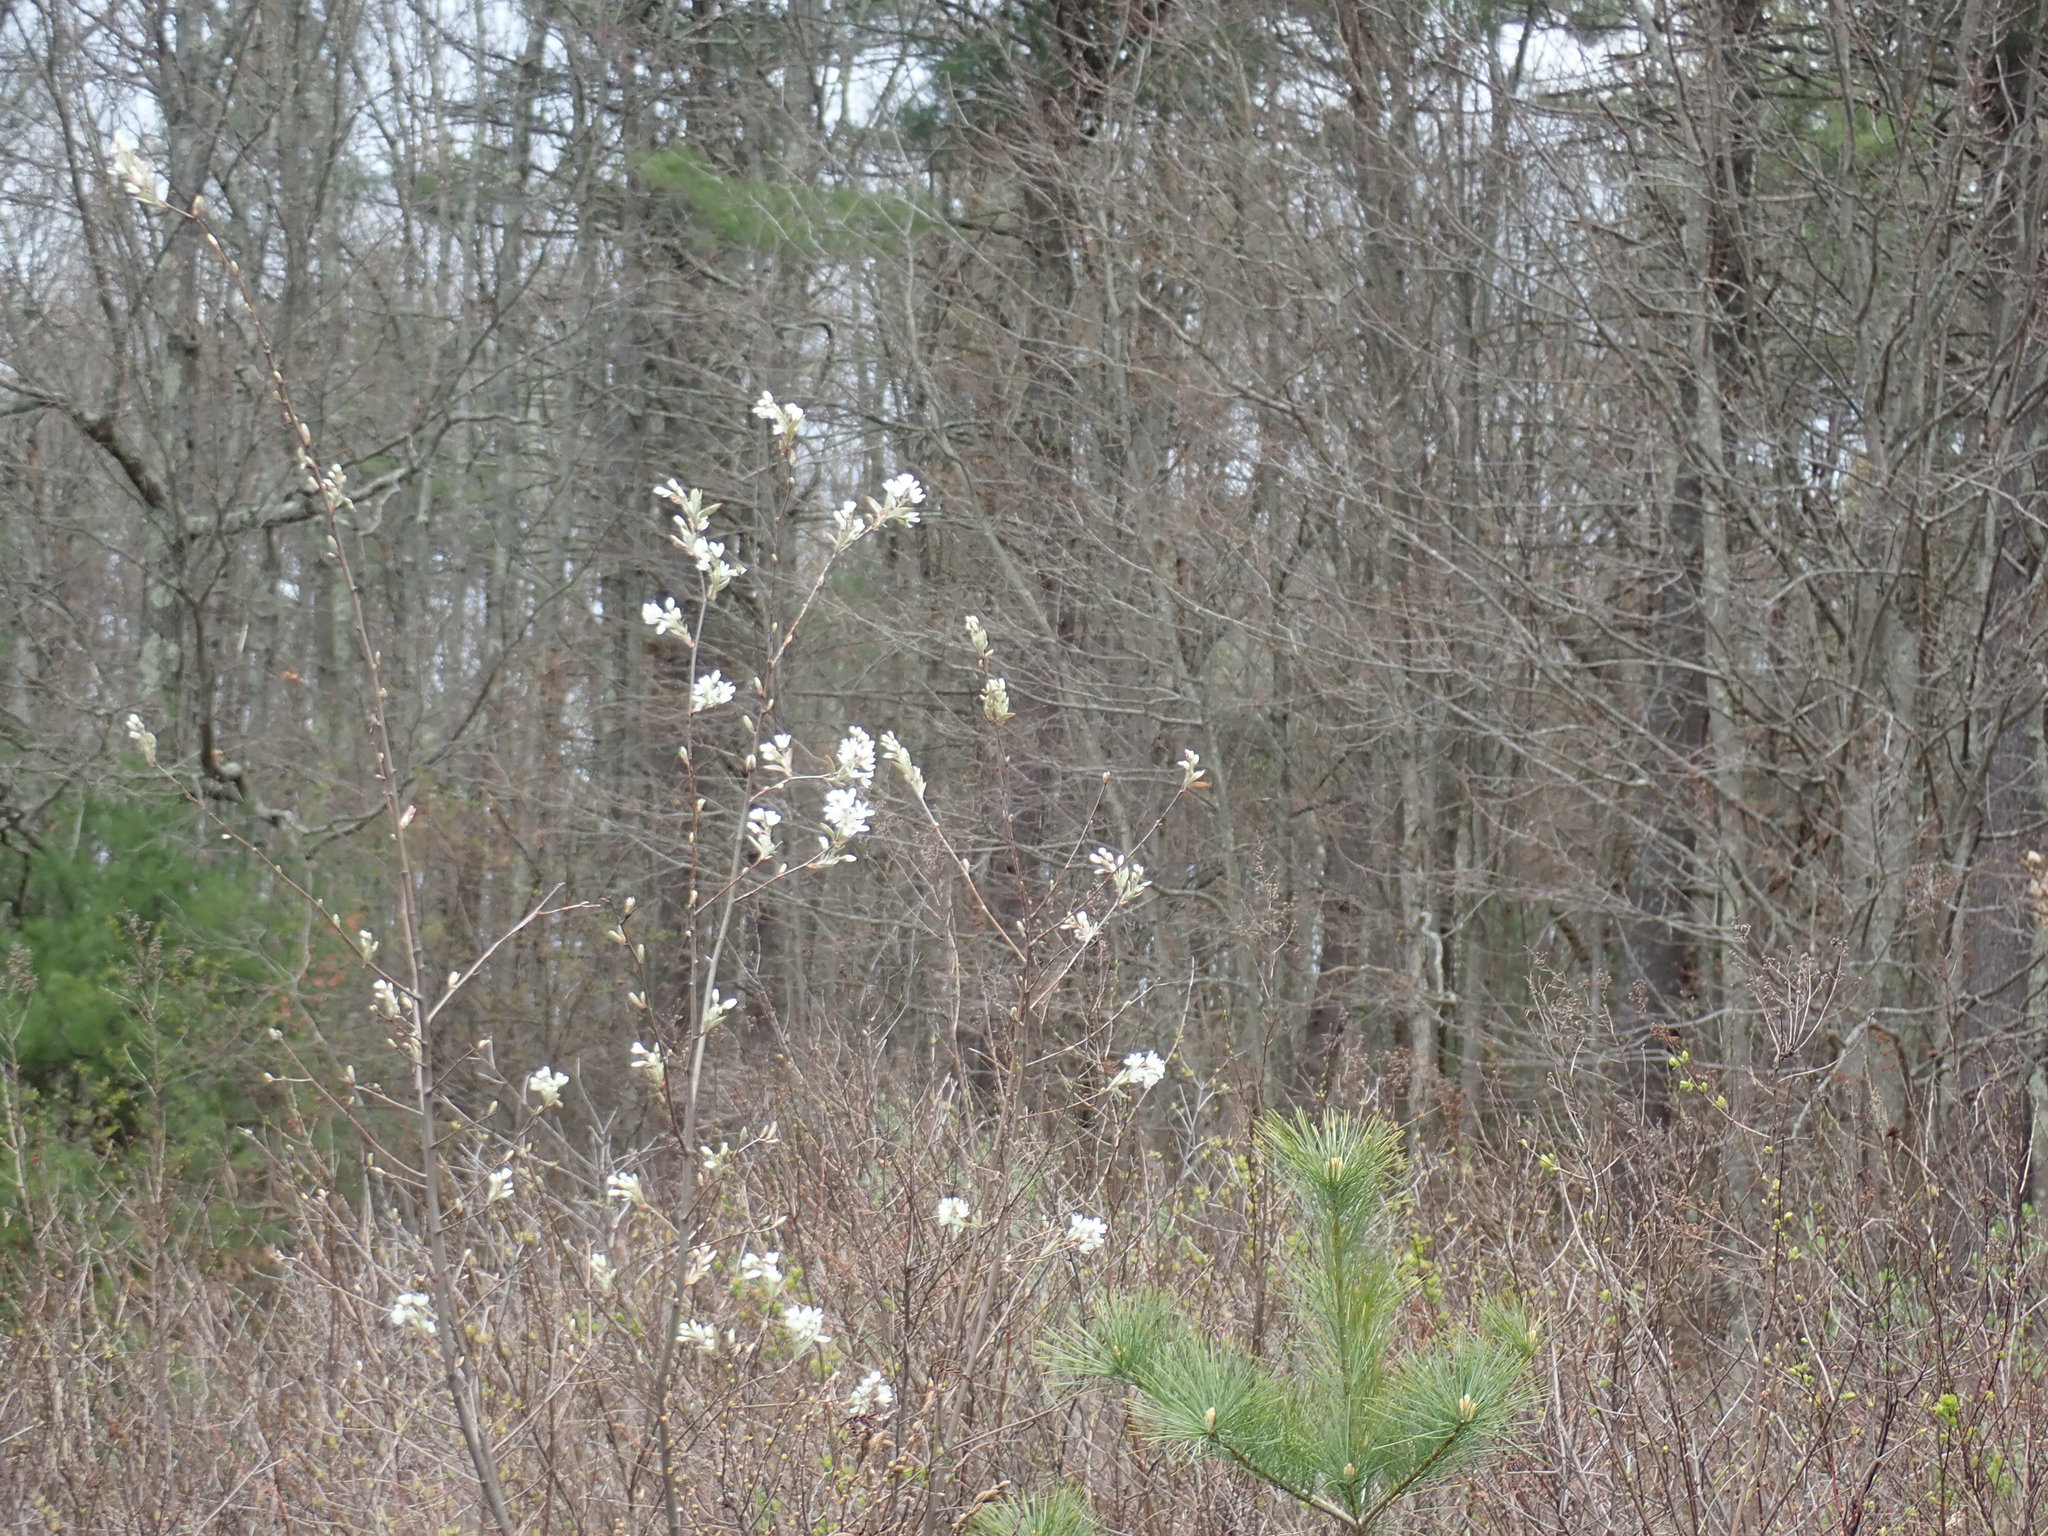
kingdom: Plantae
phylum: Tracheophyta
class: Magnoliopsida
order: Rosales
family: Rosaceae
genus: Amelanchier
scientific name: Amelanchier
